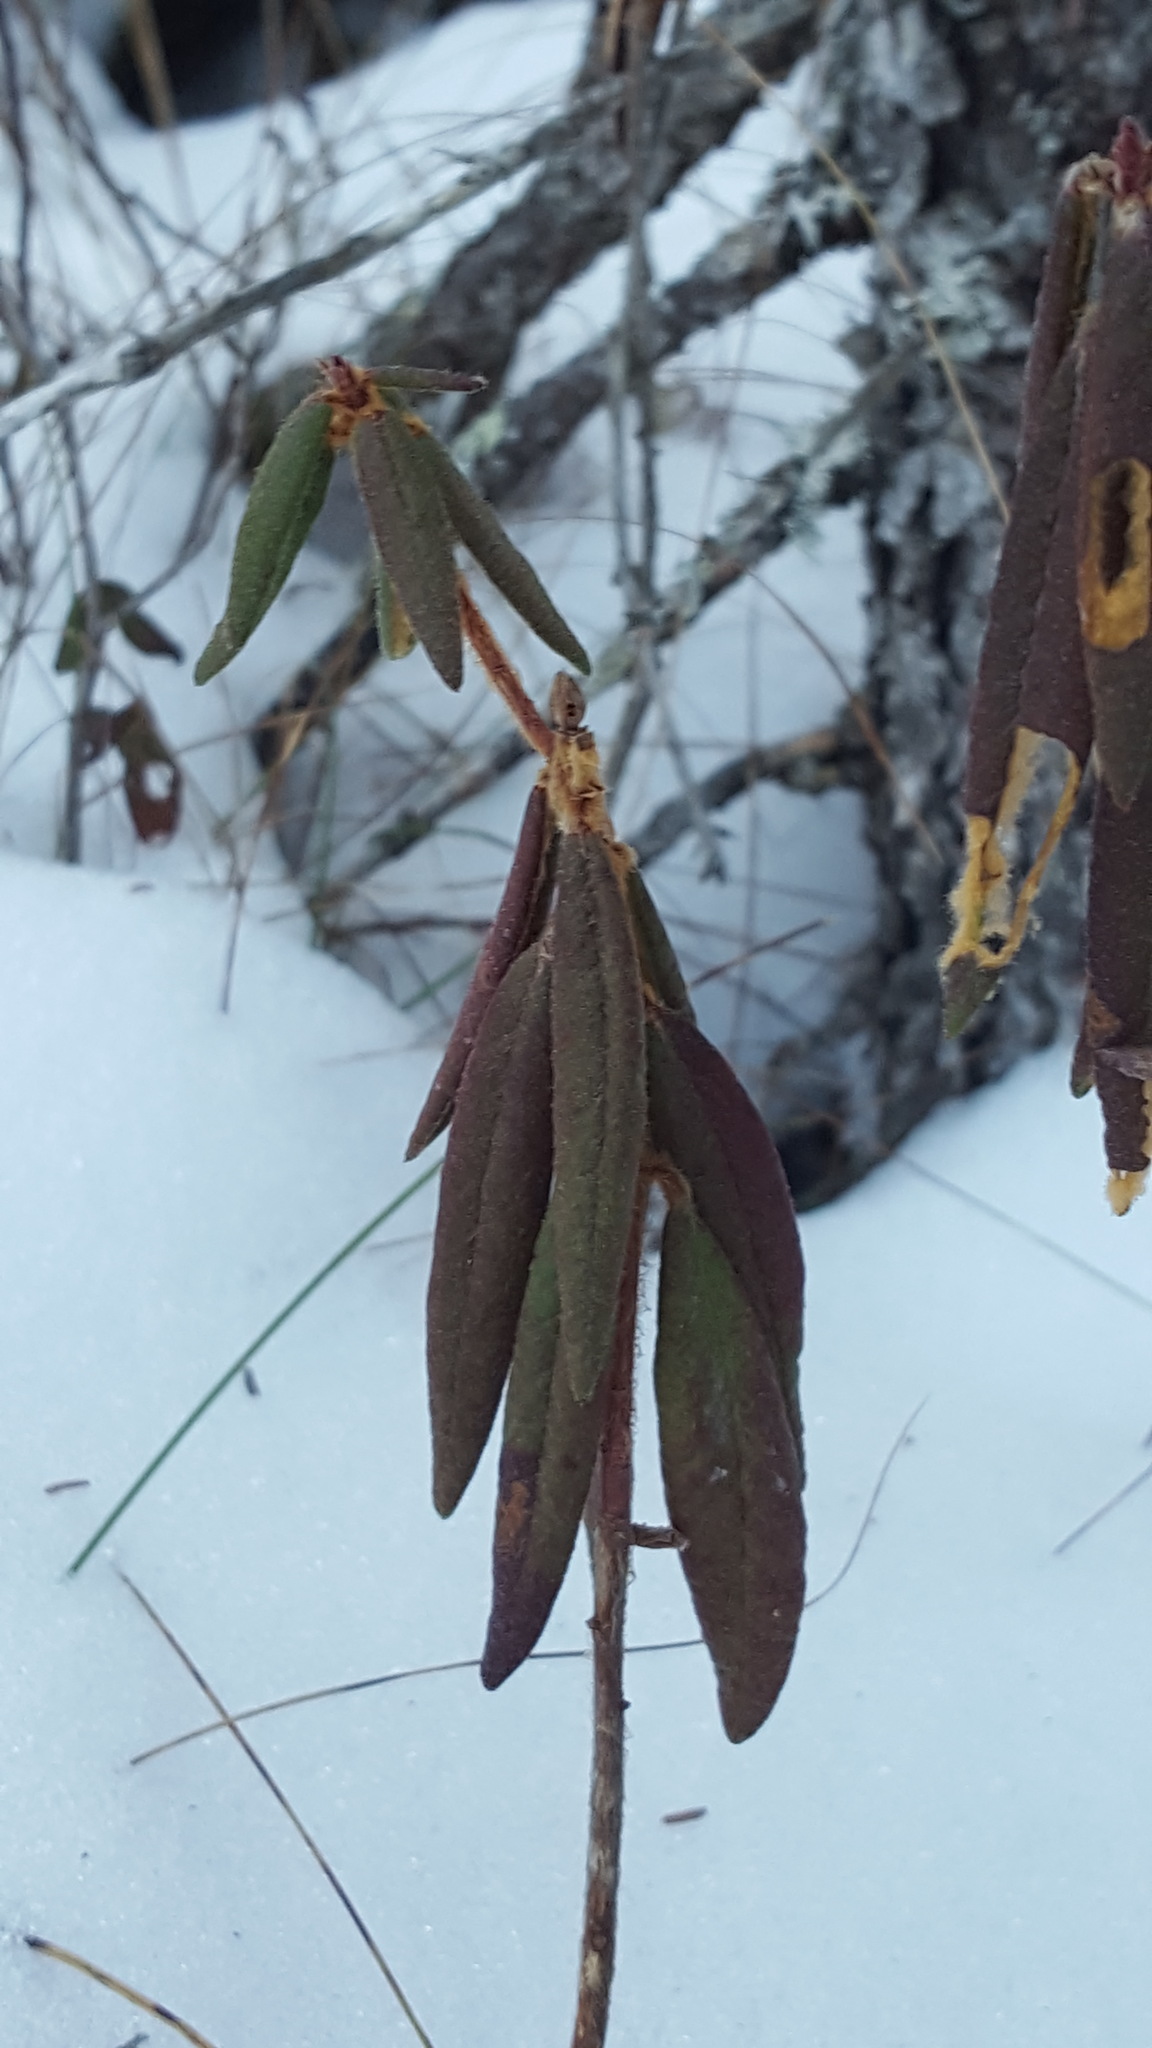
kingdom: Plantae
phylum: Tracheophyta
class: Magnoliopsida
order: Ericales
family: Ericaceae
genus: Rhododendron
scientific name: Rhododendron groenlandicum
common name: Bog labrador tea
